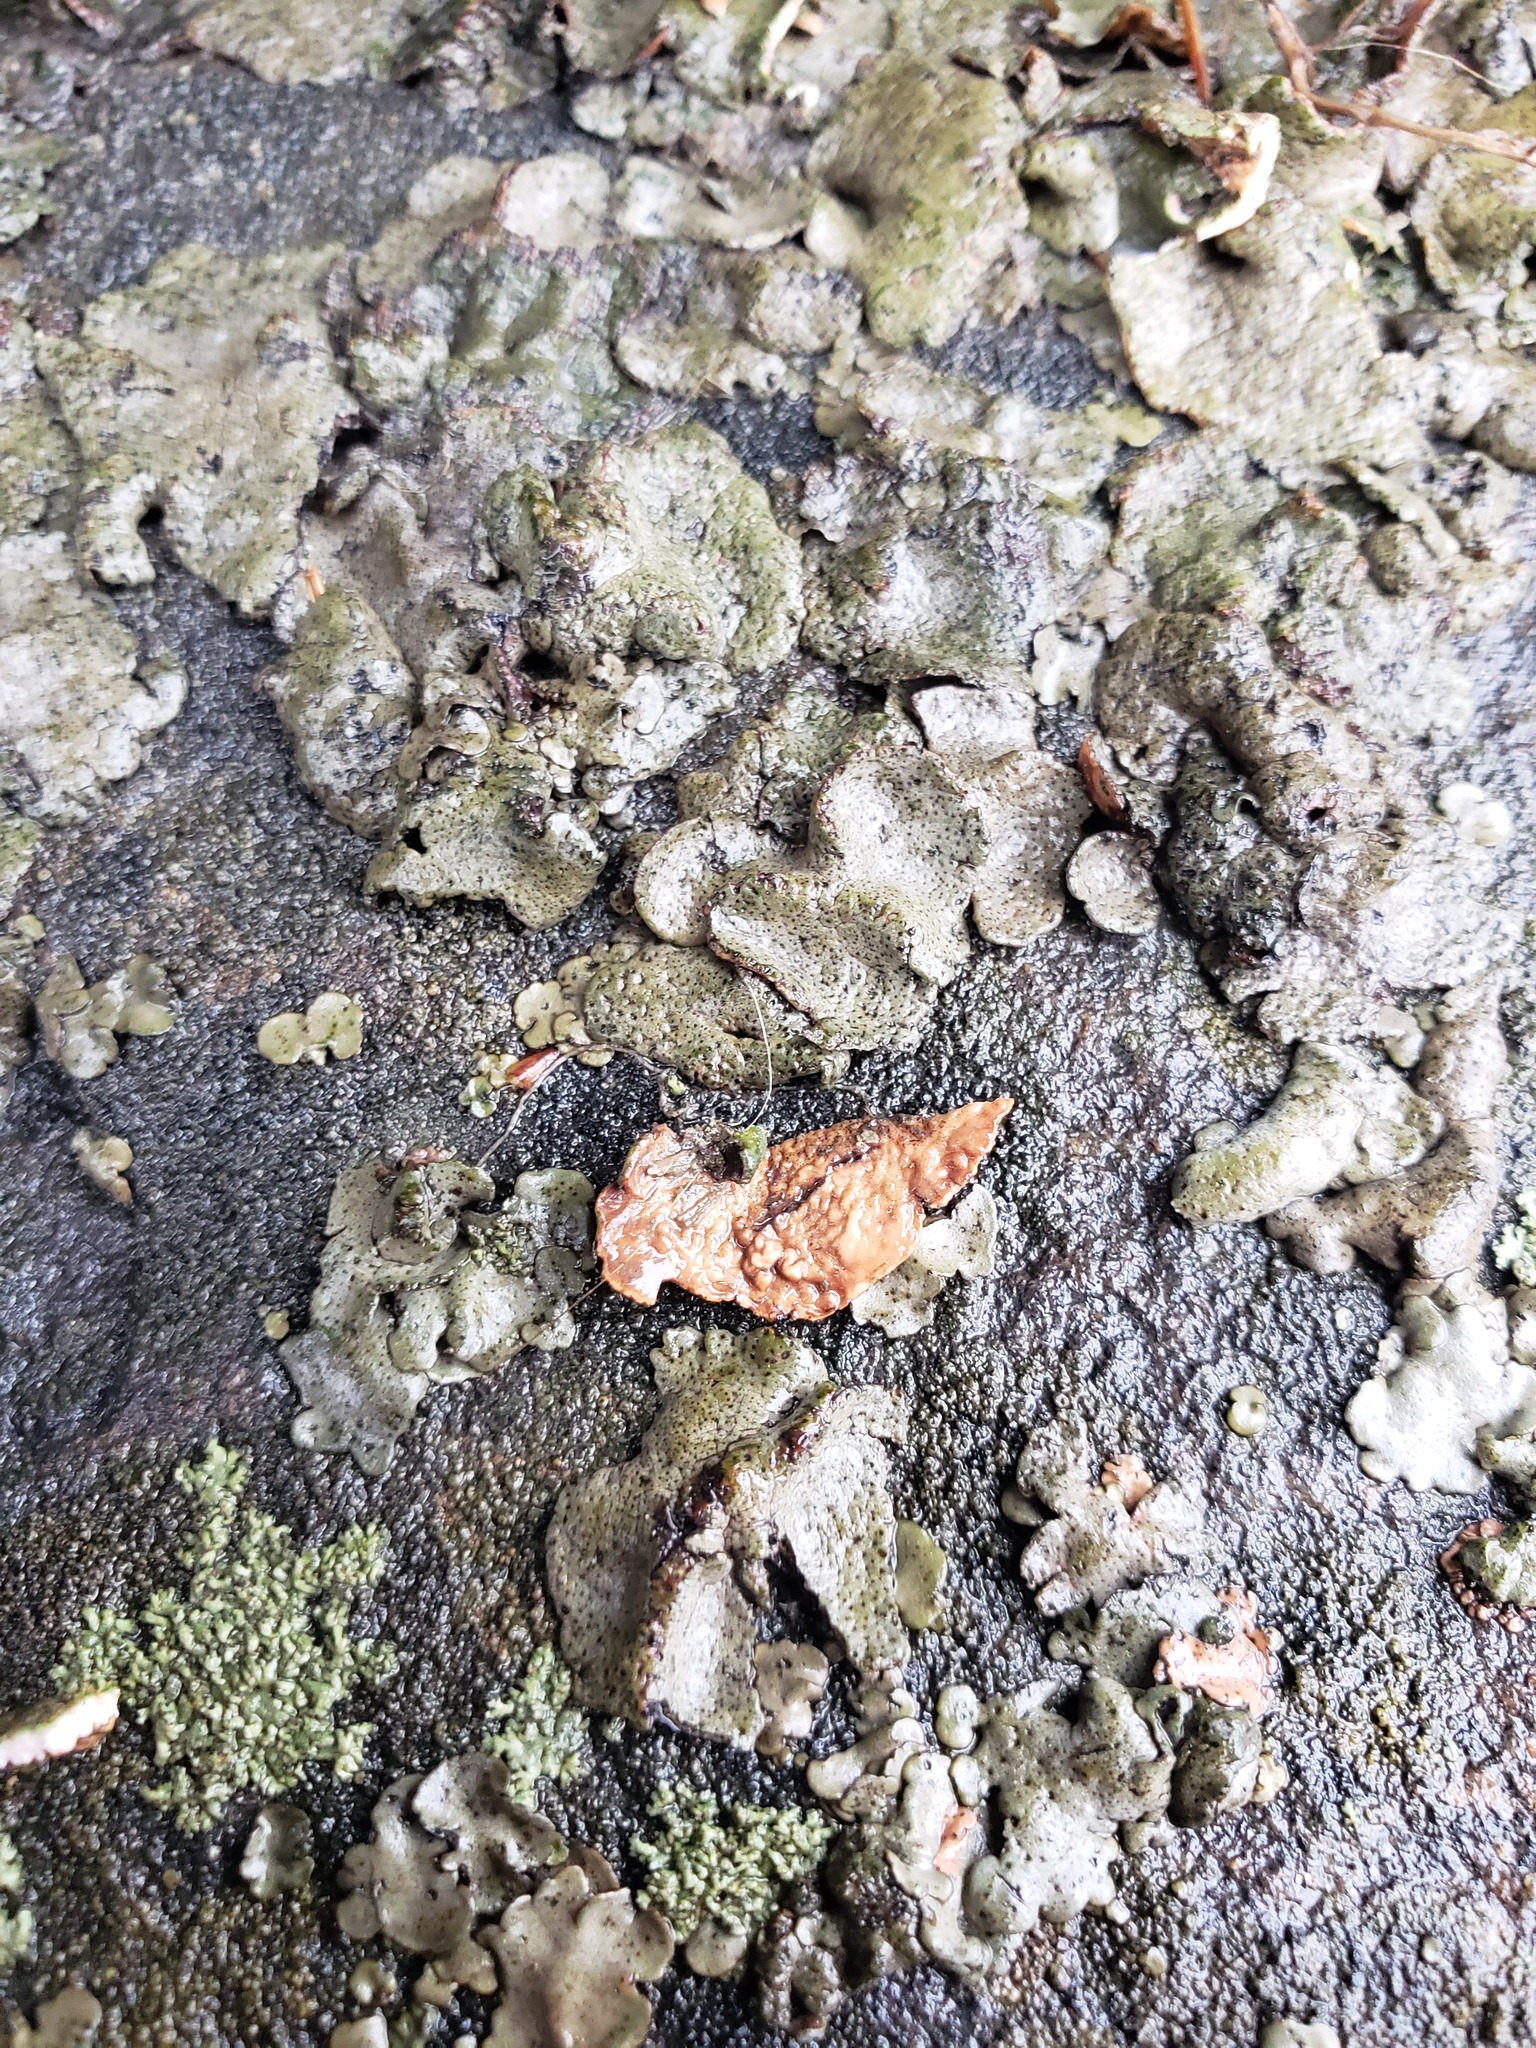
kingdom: Fungi
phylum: Ascomycota
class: Lecanoromycetes
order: Umbilicariales
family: Umbilicariaceae
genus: Lasallia
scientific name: Lasallia papulosa
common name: Common toadskin lichen
